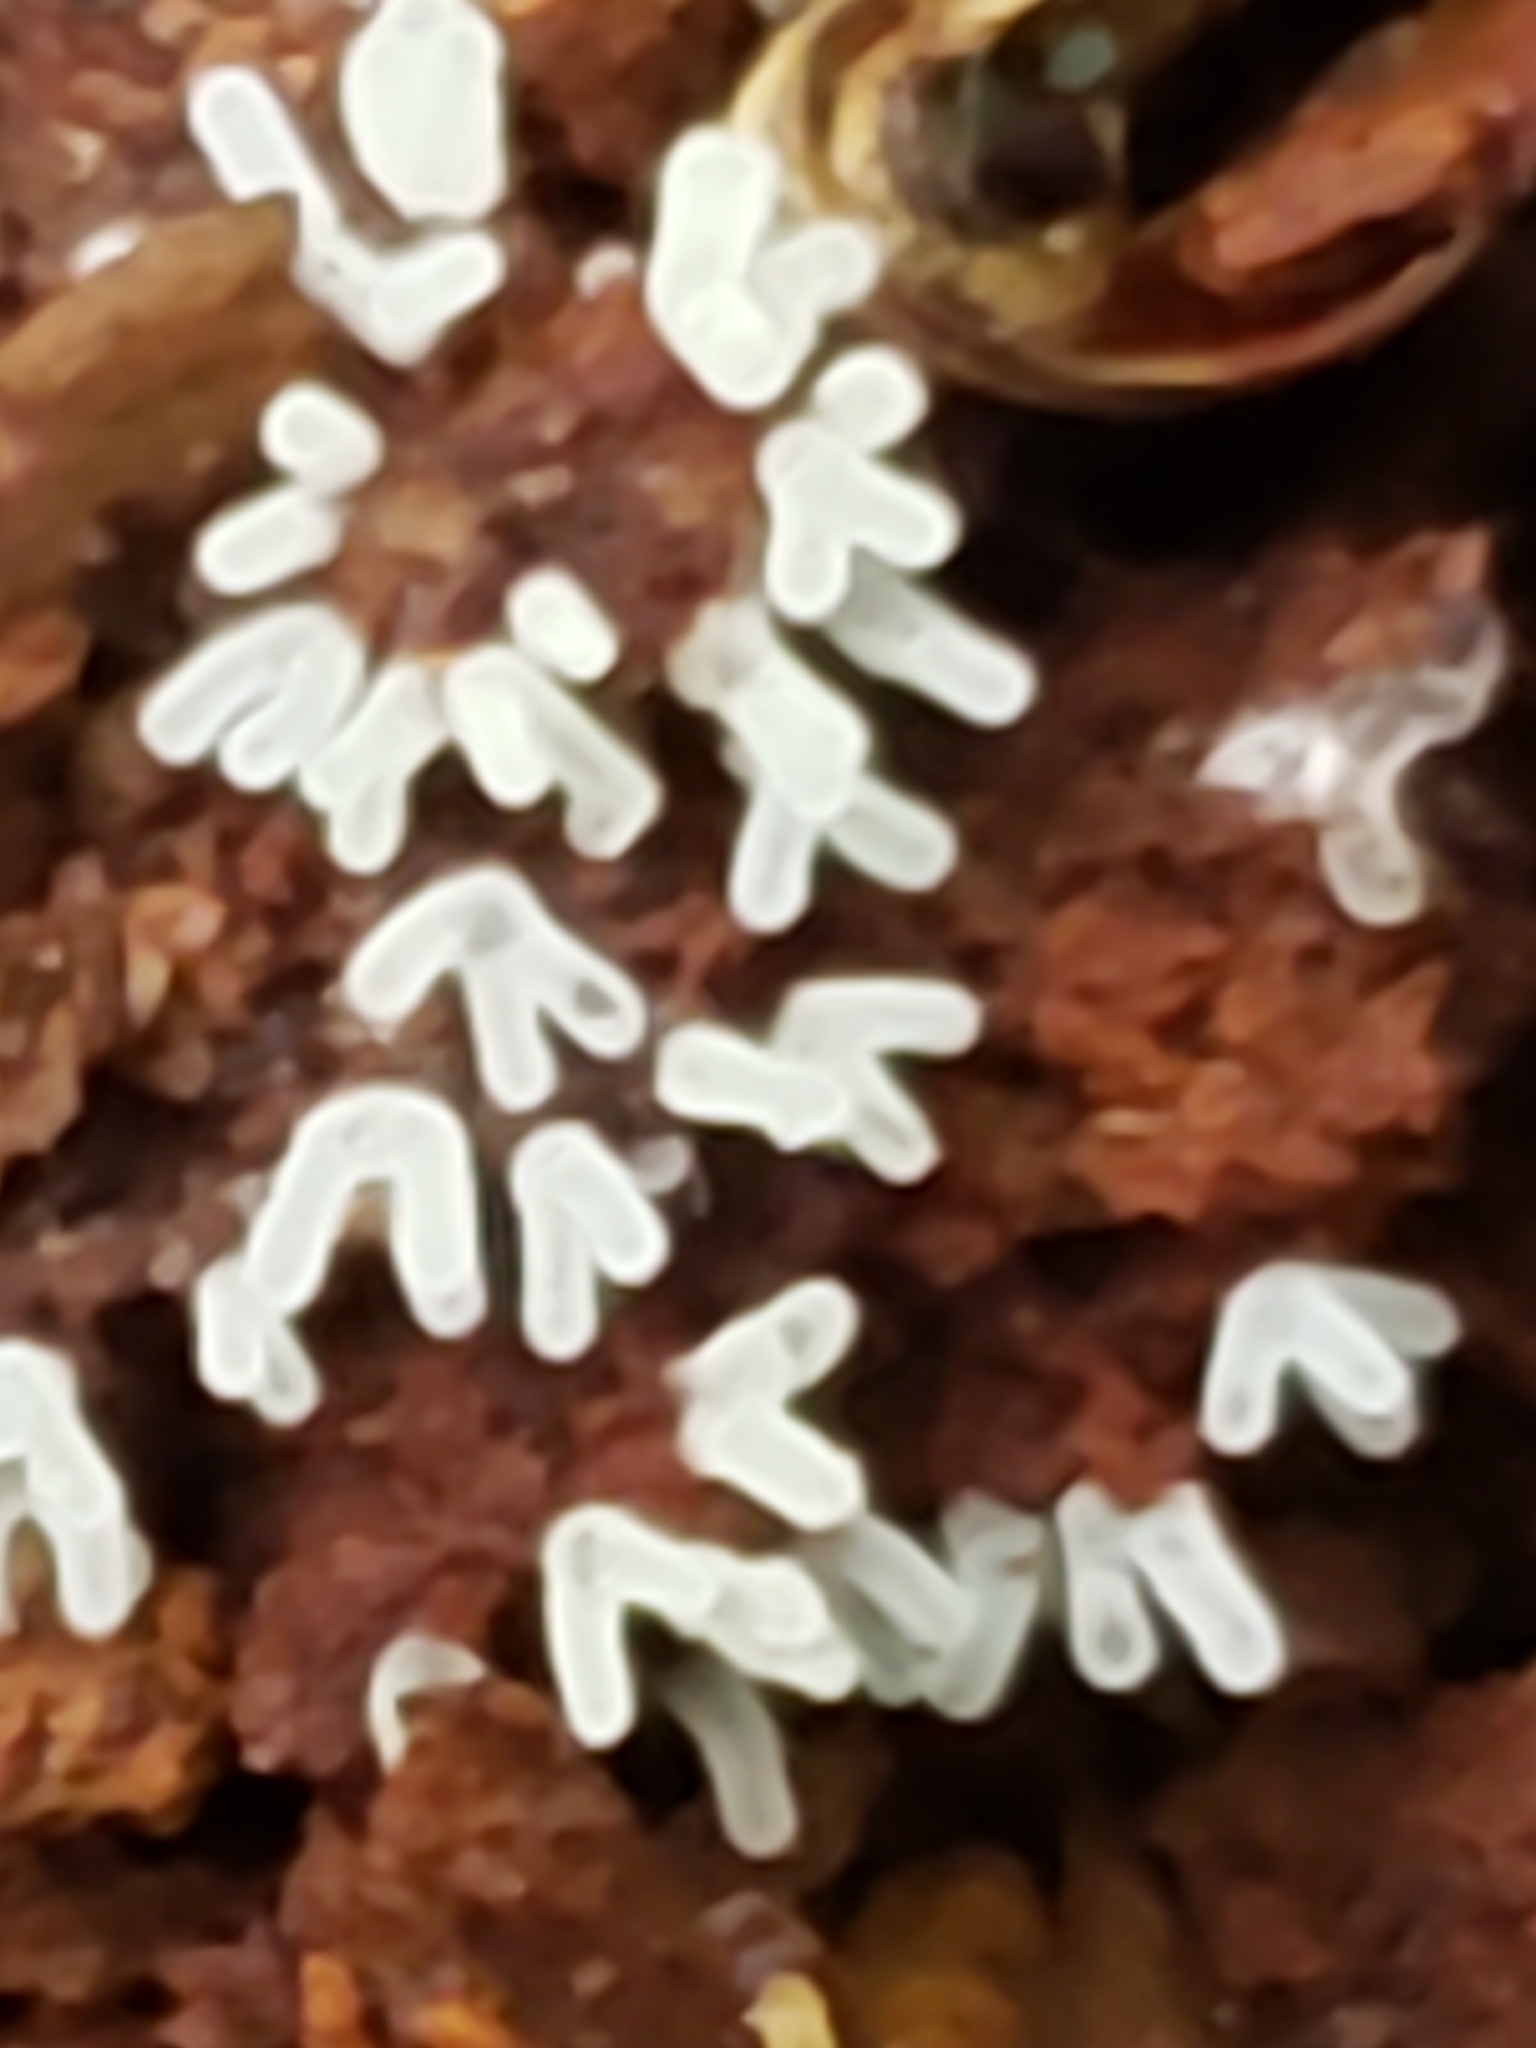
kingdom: Protozoa
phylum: Mycetozoa
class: Protosteliomycetes
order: Ceratiomyxales
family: Ceratiomyxaceae
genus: Ceratiomyxa
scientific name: Ceratiomyxa fruticulosa
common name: Honeycomb coral slime mold
